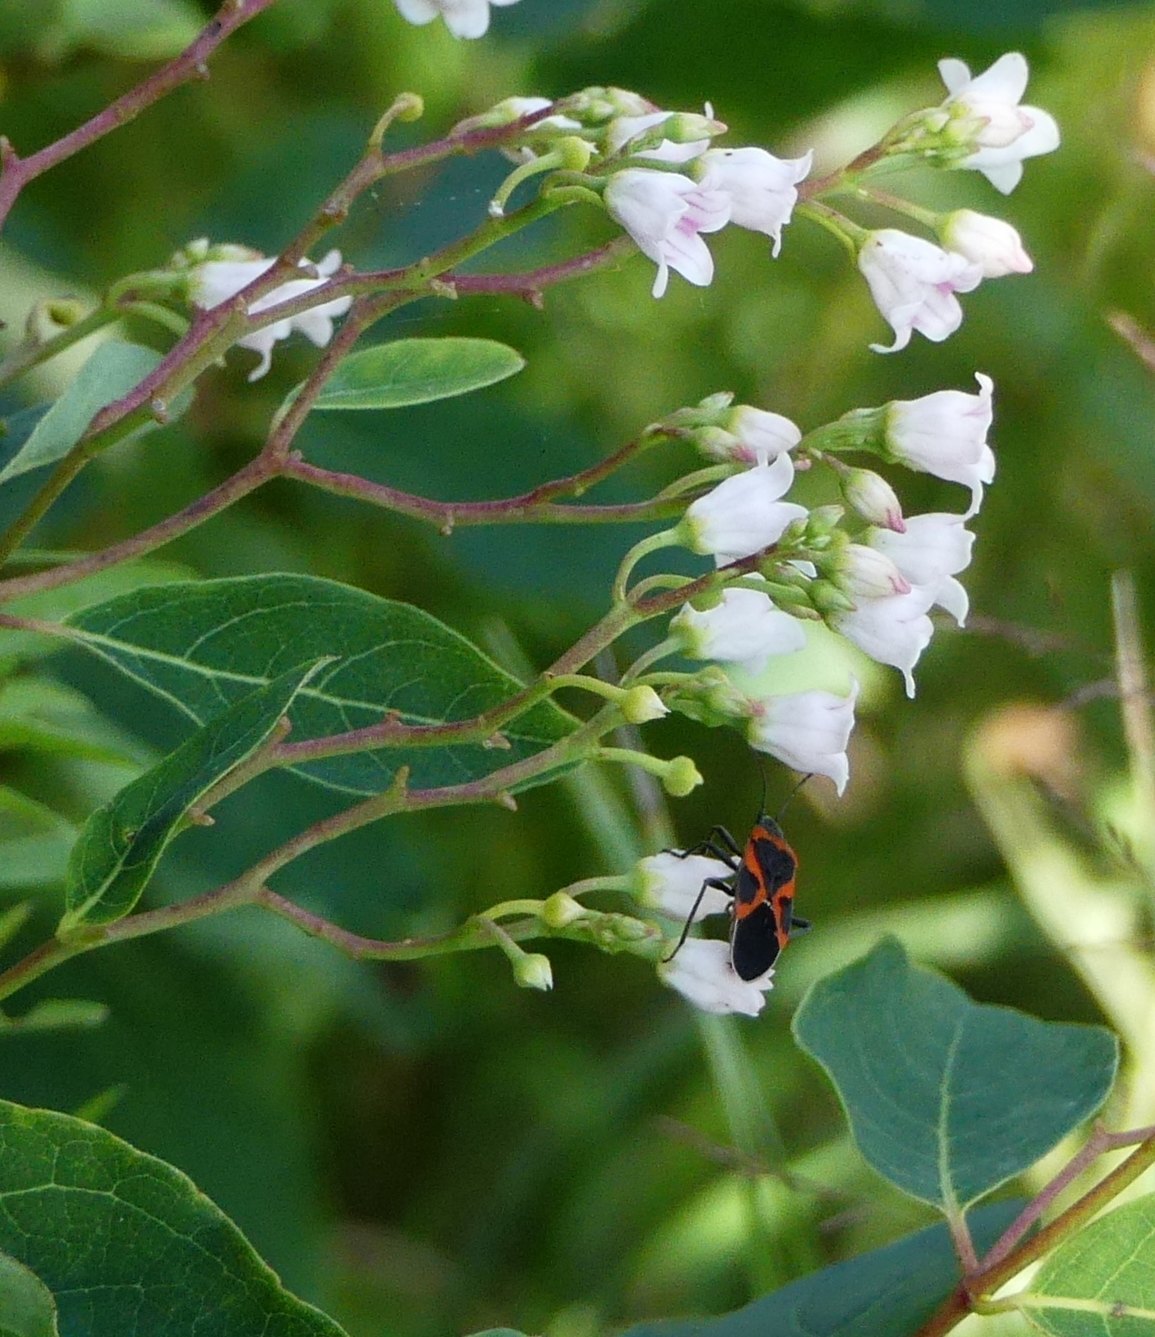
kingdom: Plantae
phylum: Tracheophyta
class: Magnoliopsida
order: Gentianales
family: Apocynaceae
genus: Apocynum
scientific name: Apocynum androsaemifolium
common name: Spreading dogbane
